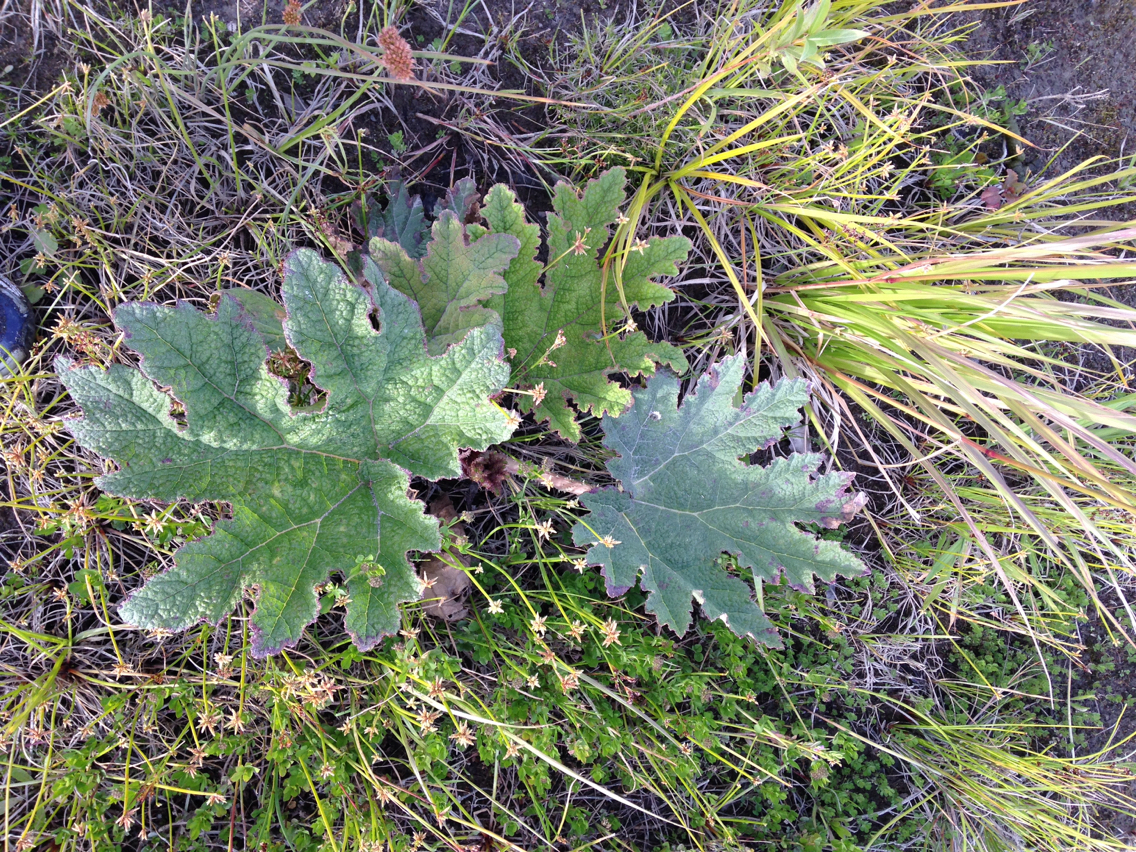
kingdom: Plantae
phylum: Tracheophyta
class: Magnoliopsida
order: Gunnerales
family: Gunneraceae
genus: Gunnera
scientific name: Gunnera tinctoria
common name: Giant-rhubarb
